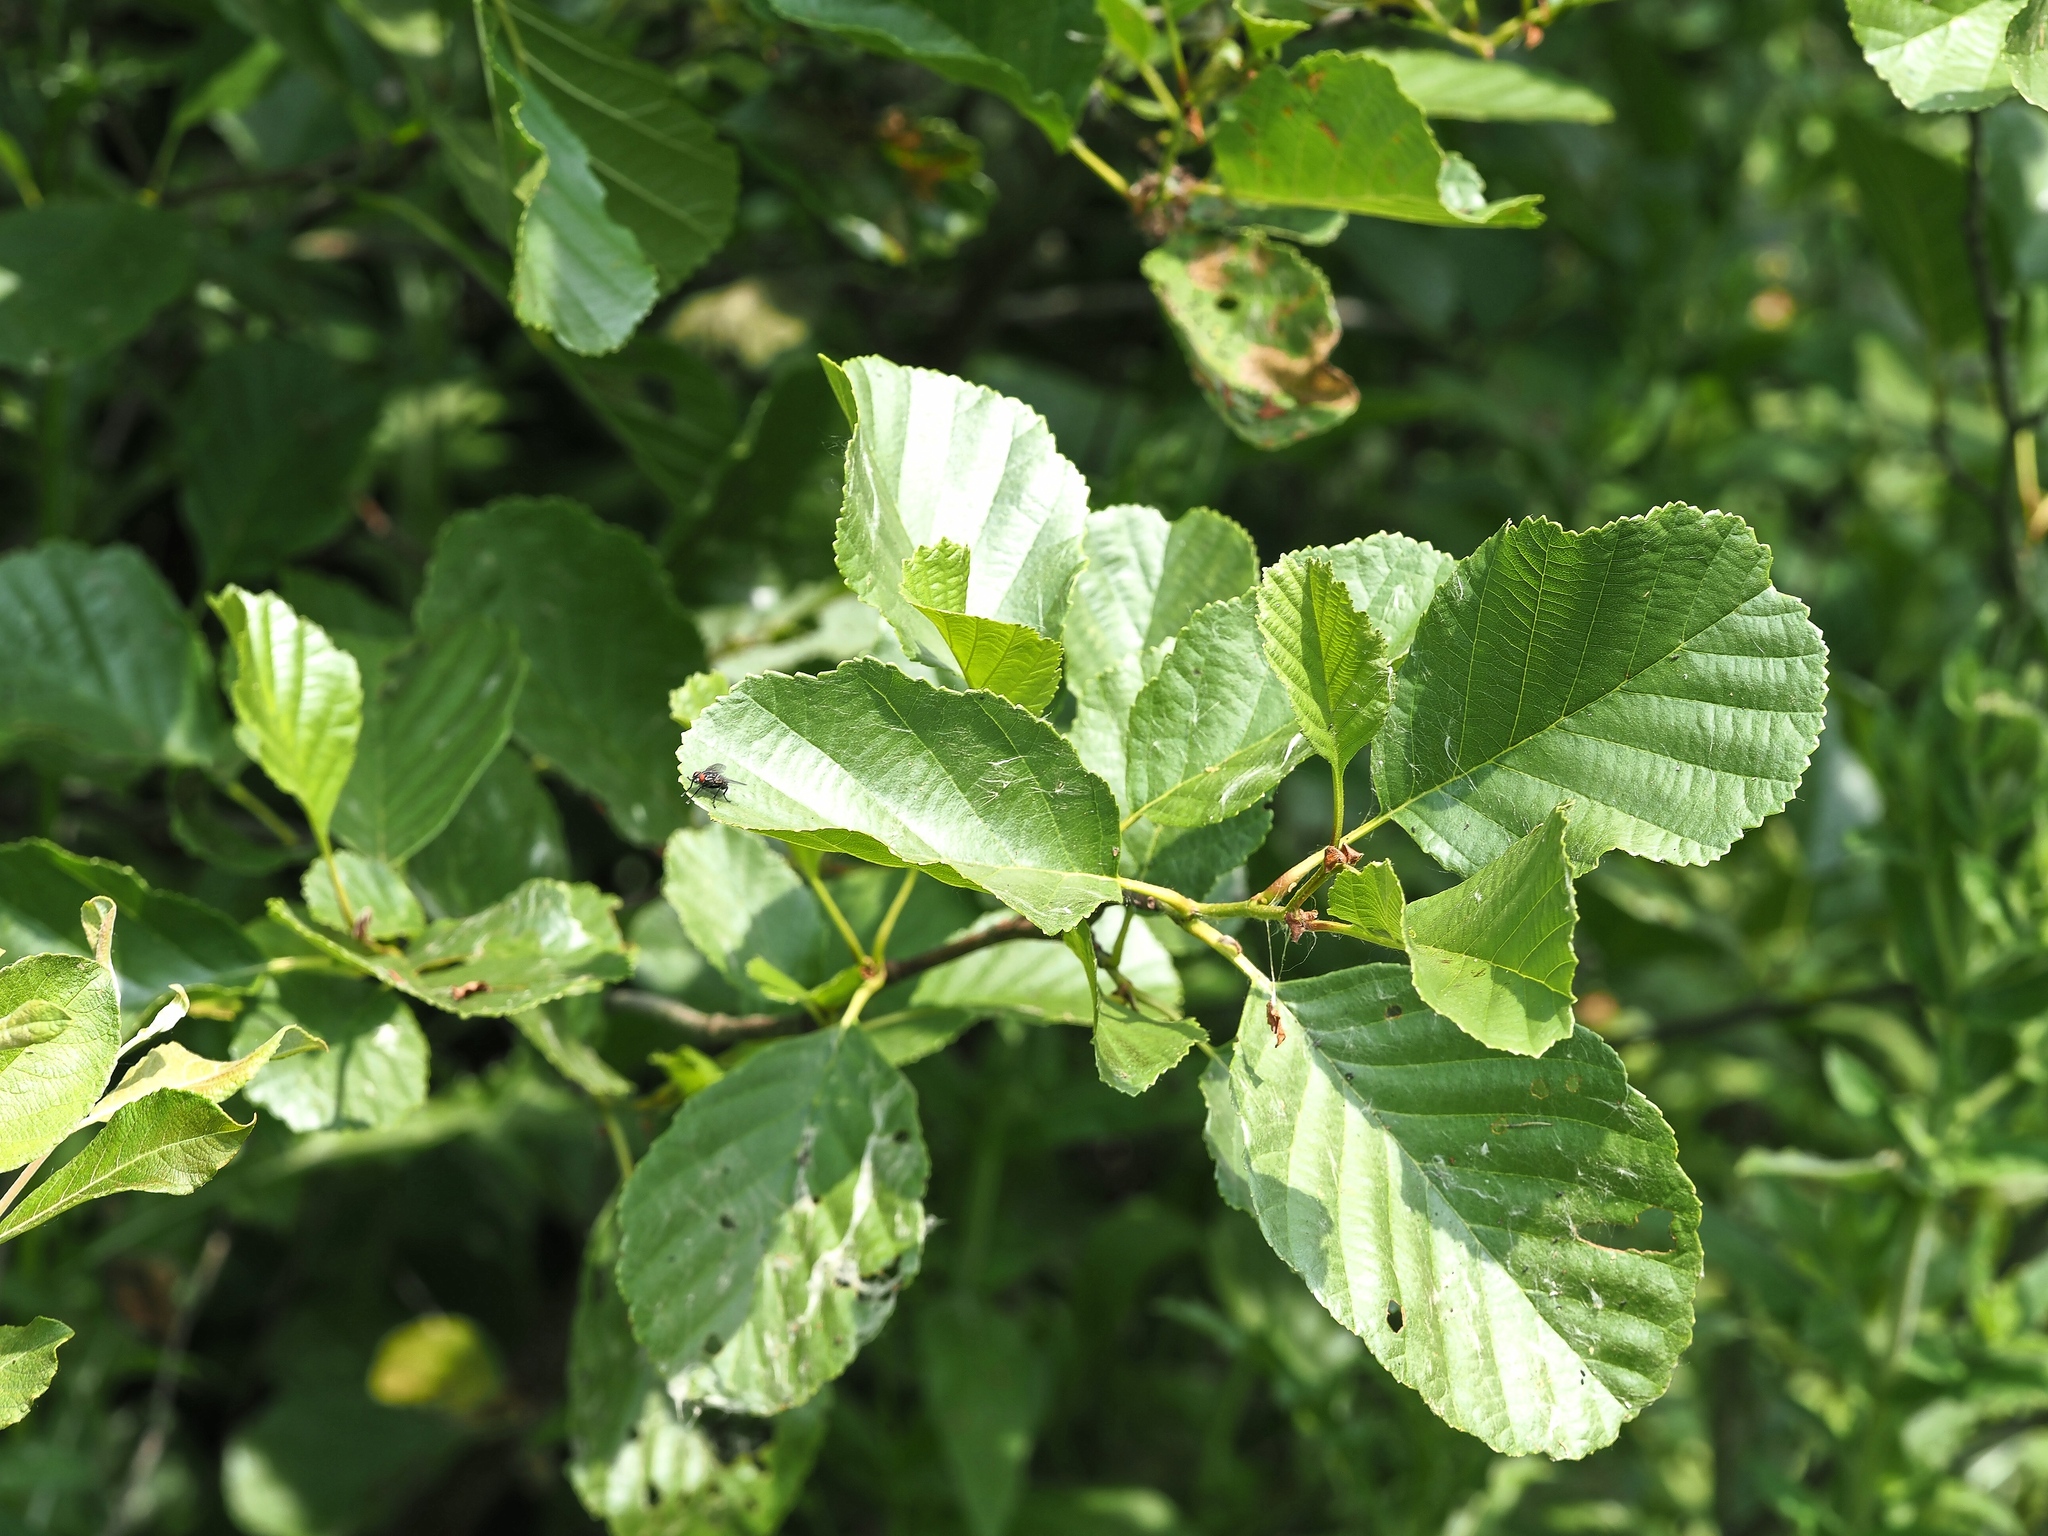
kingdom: Plantae
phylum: Tracheophyta
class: Magnoliopsida
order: Fagales
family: Betulaceae
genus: Alnus
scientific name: Alnus glutinosa
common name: Black alder
